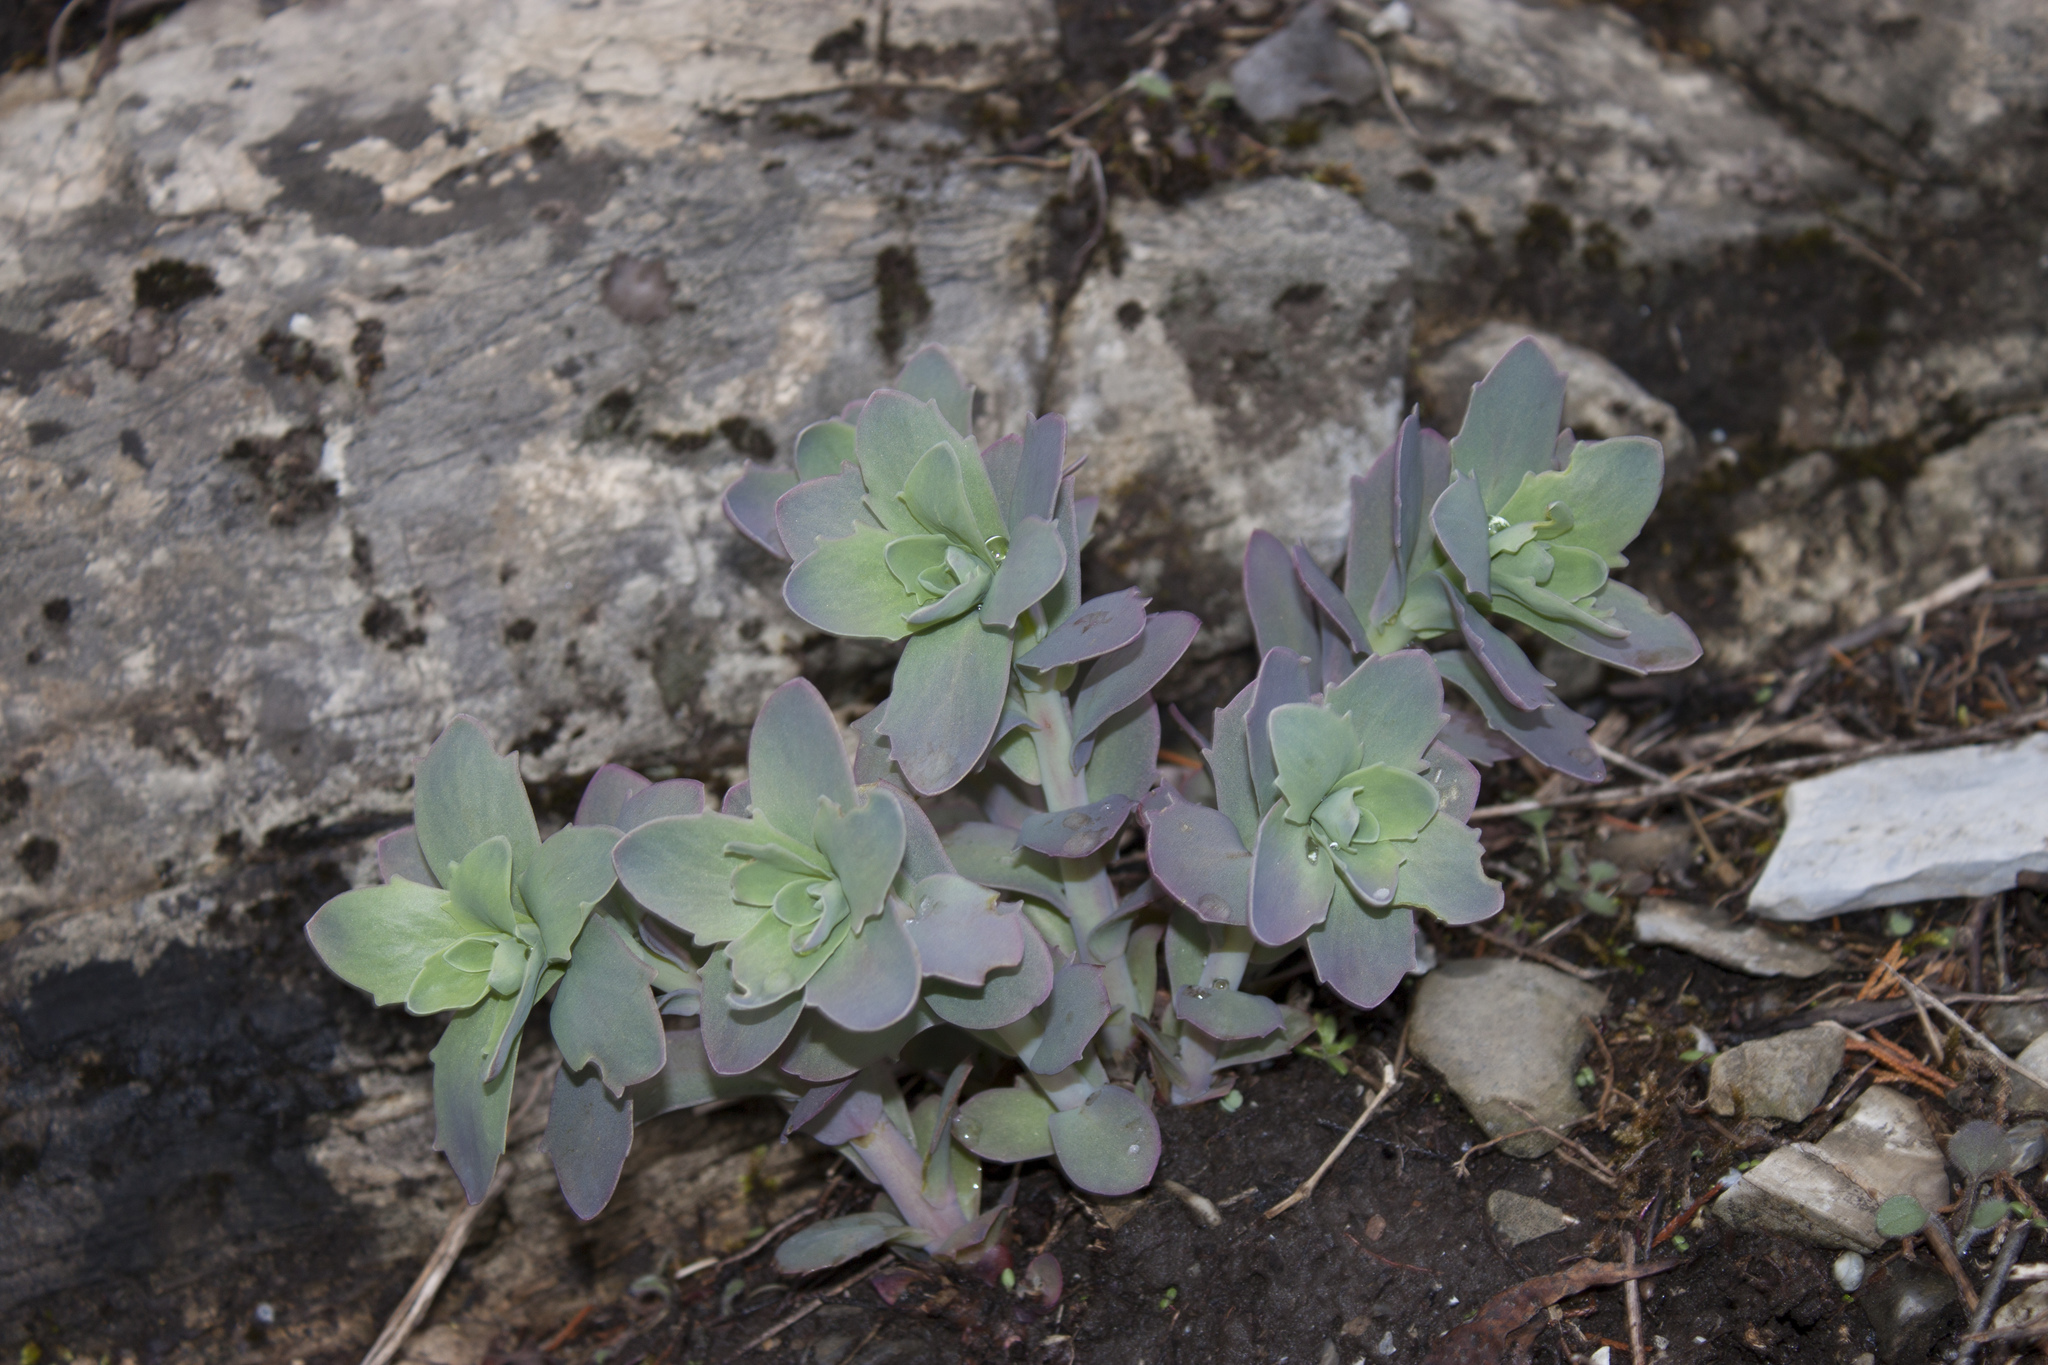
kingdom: Plantae
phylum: Tracheophyta
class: Magnoliopsida
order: Saxifragales
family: Crassulaceae
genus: Hylotelephium
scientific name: Hylotelephium telephioides
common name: Allegheny stonecrop
